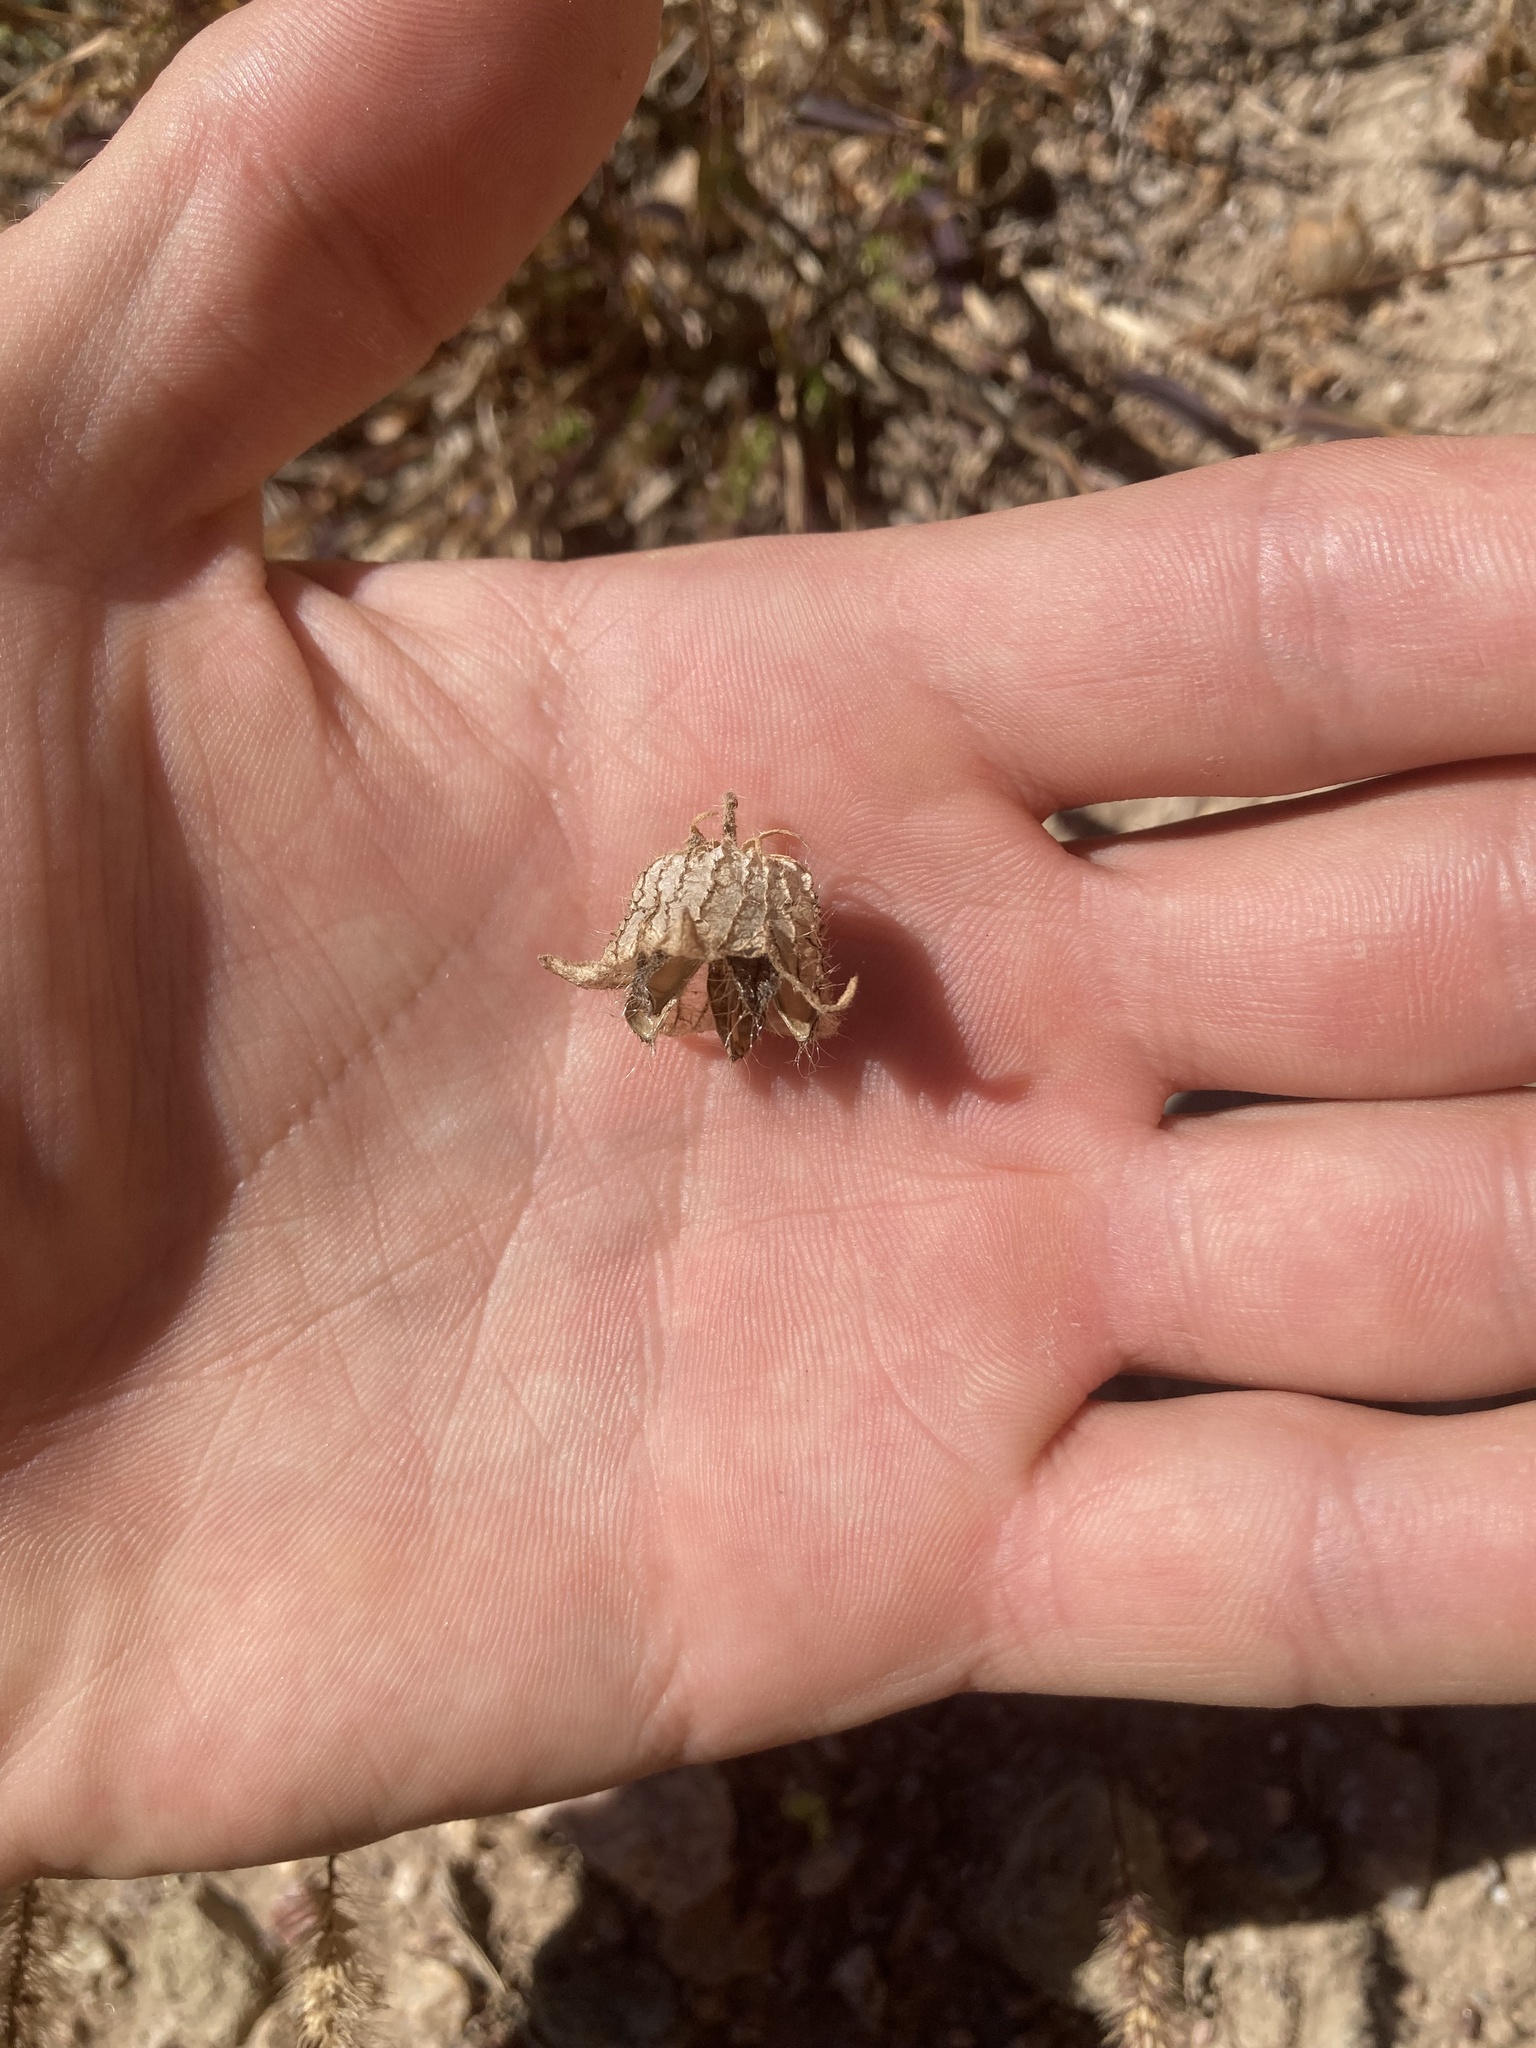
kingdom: Plantae
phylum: Tracheophyta
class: Magnoliopsida
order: Malvales
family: Malvaceae
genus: Hibiscus
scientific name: Hibiscus trionum
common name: Bladder ketmia
